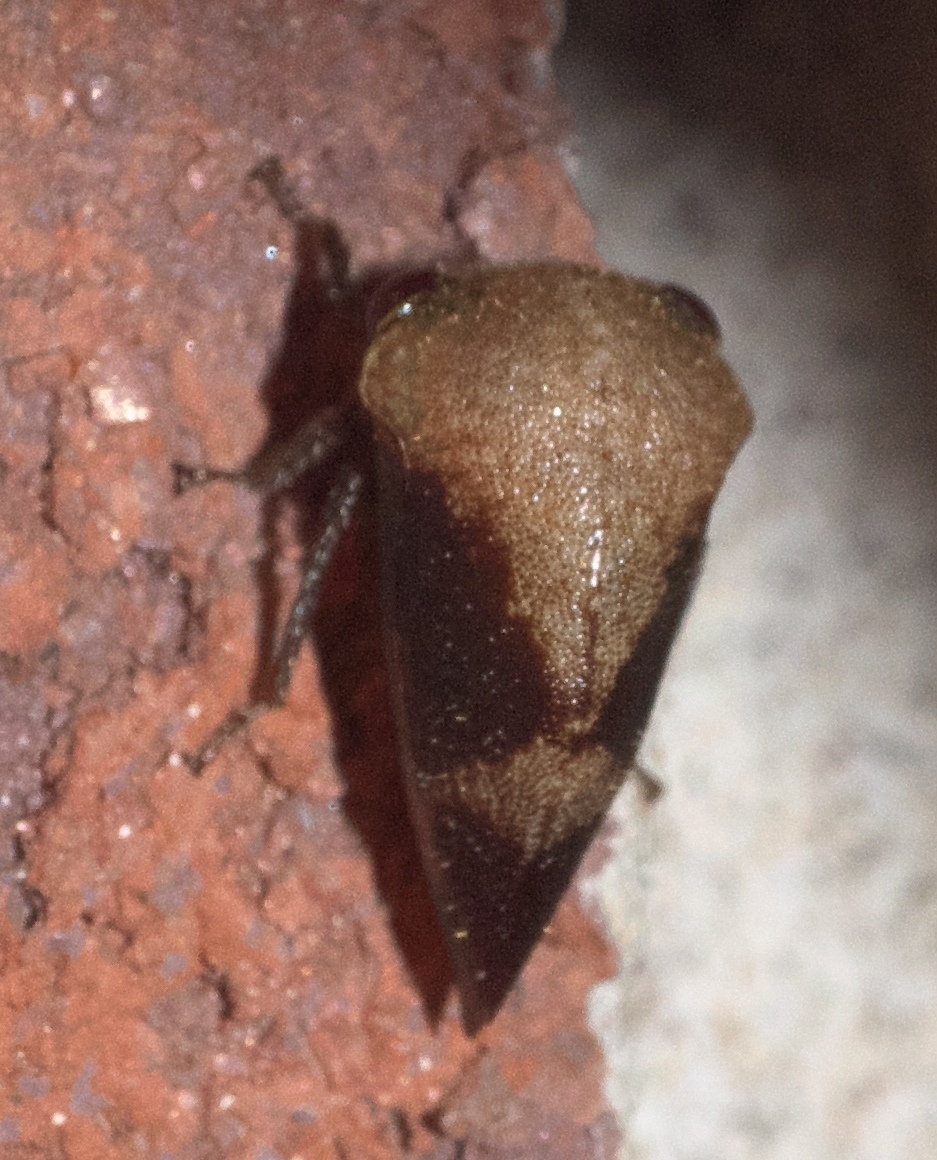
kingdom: Animalia
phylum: Arthropoda
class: Insecta
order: Hemiptera
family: Membracidae
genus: Carynota
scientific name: Carynota mera
